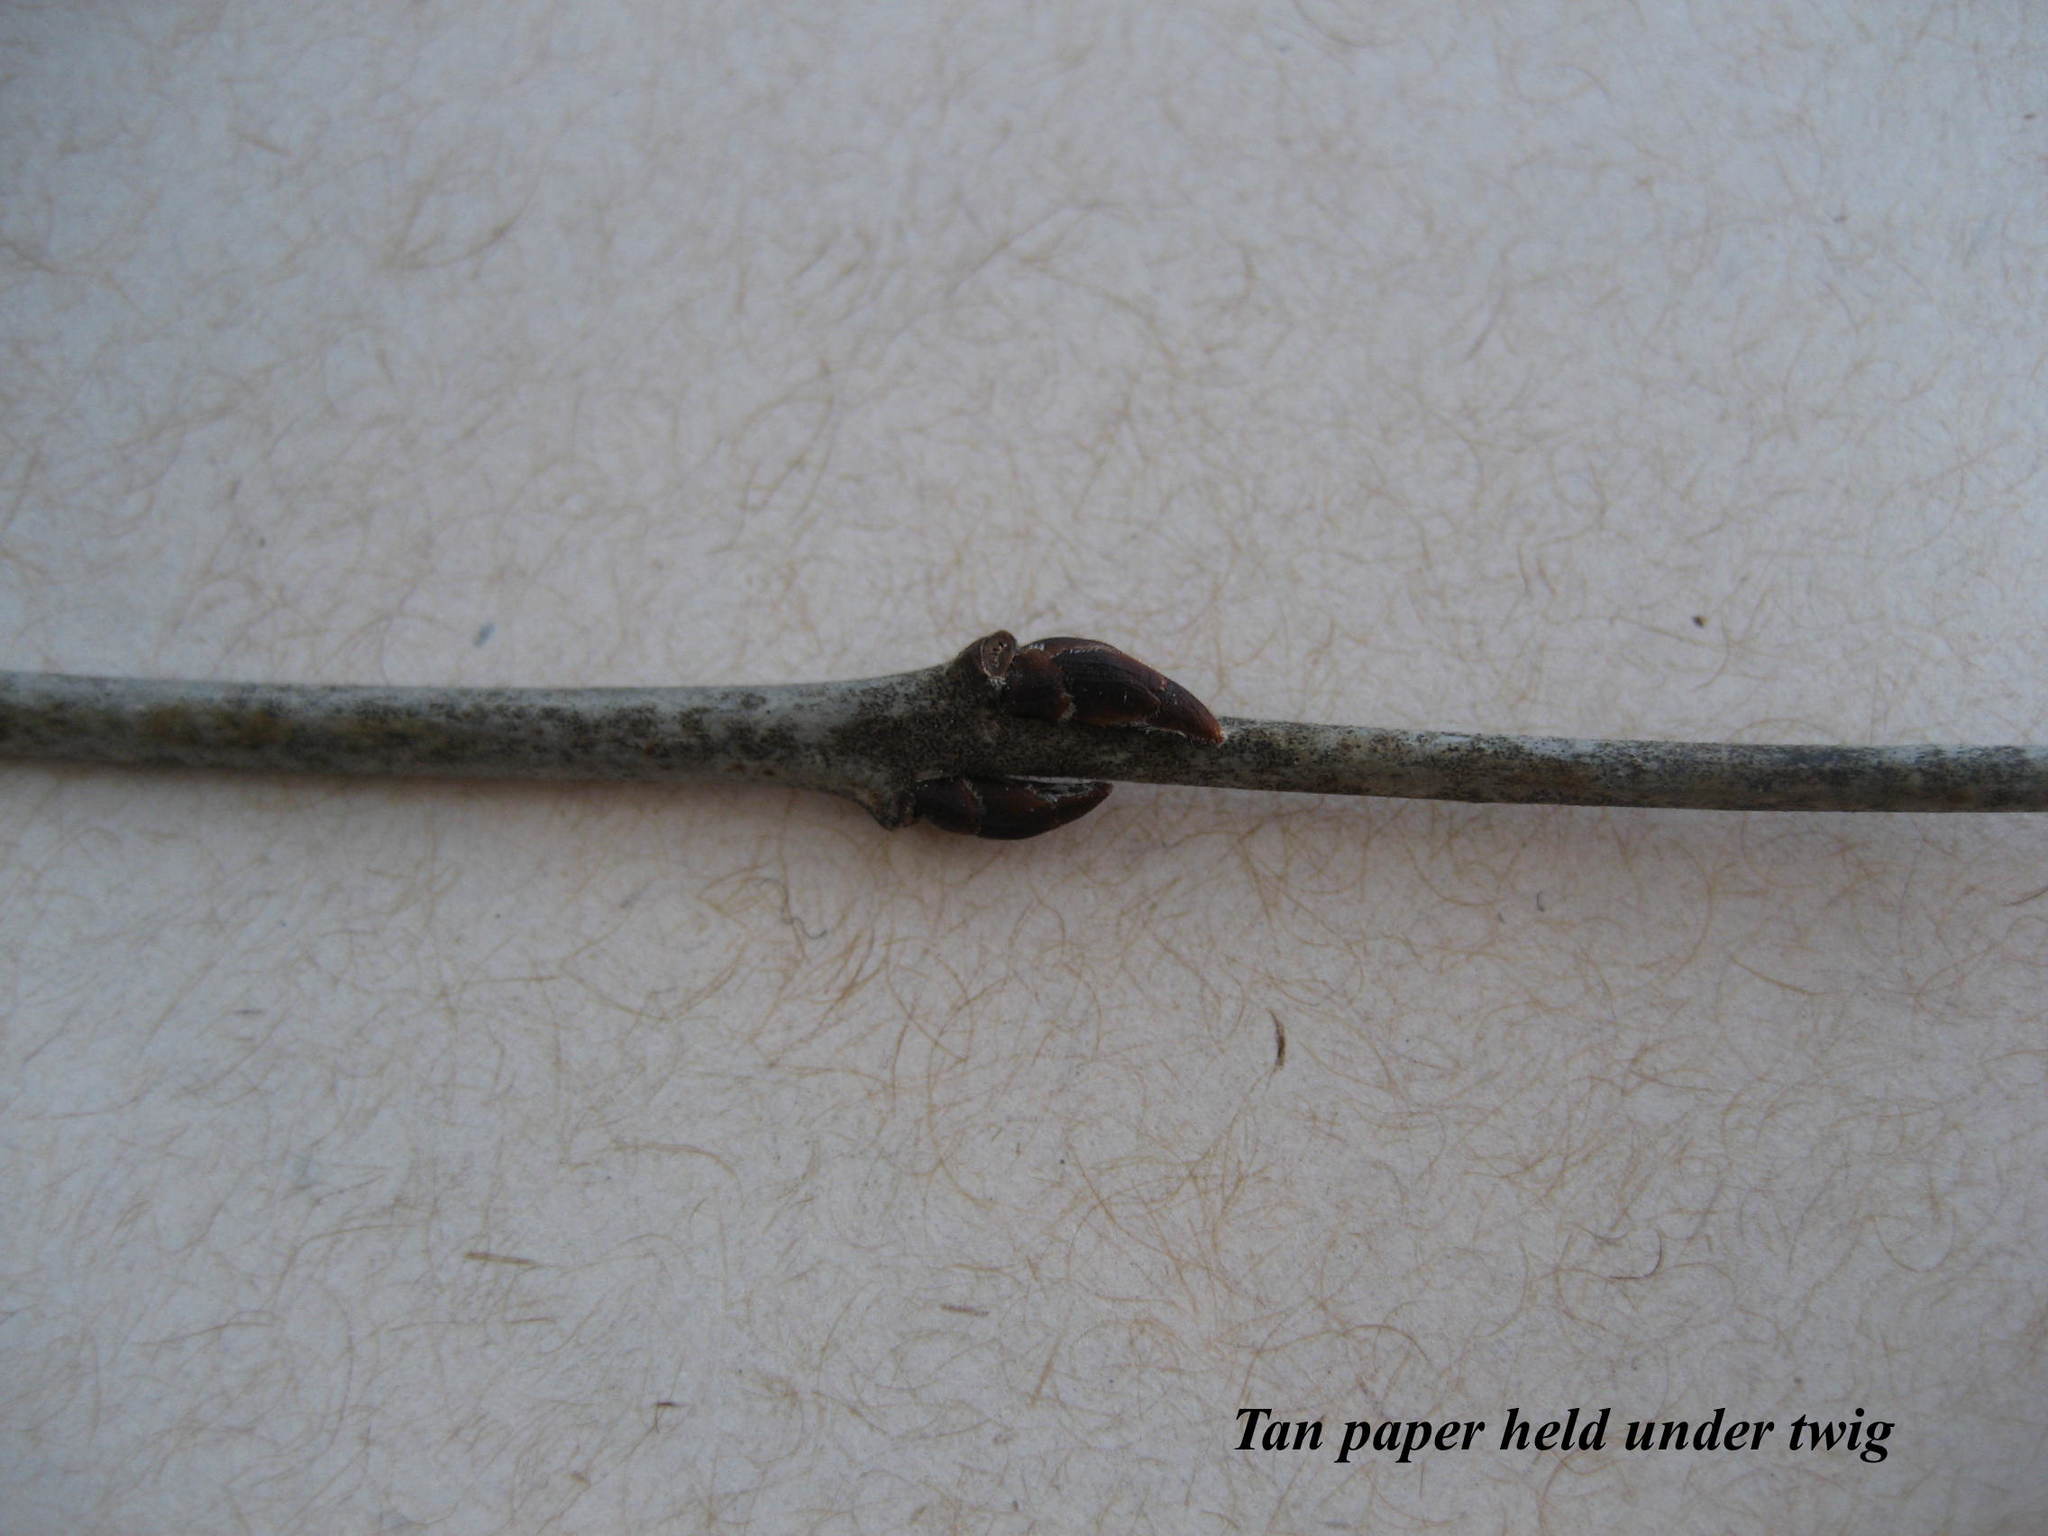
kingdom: Plantae
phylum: Tracheophyta
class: Magnoliopsida
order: Rosales
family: Rhamnaceae
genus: Rhamnus
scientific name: Rhamnus cathartica
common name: Common buckthorn
